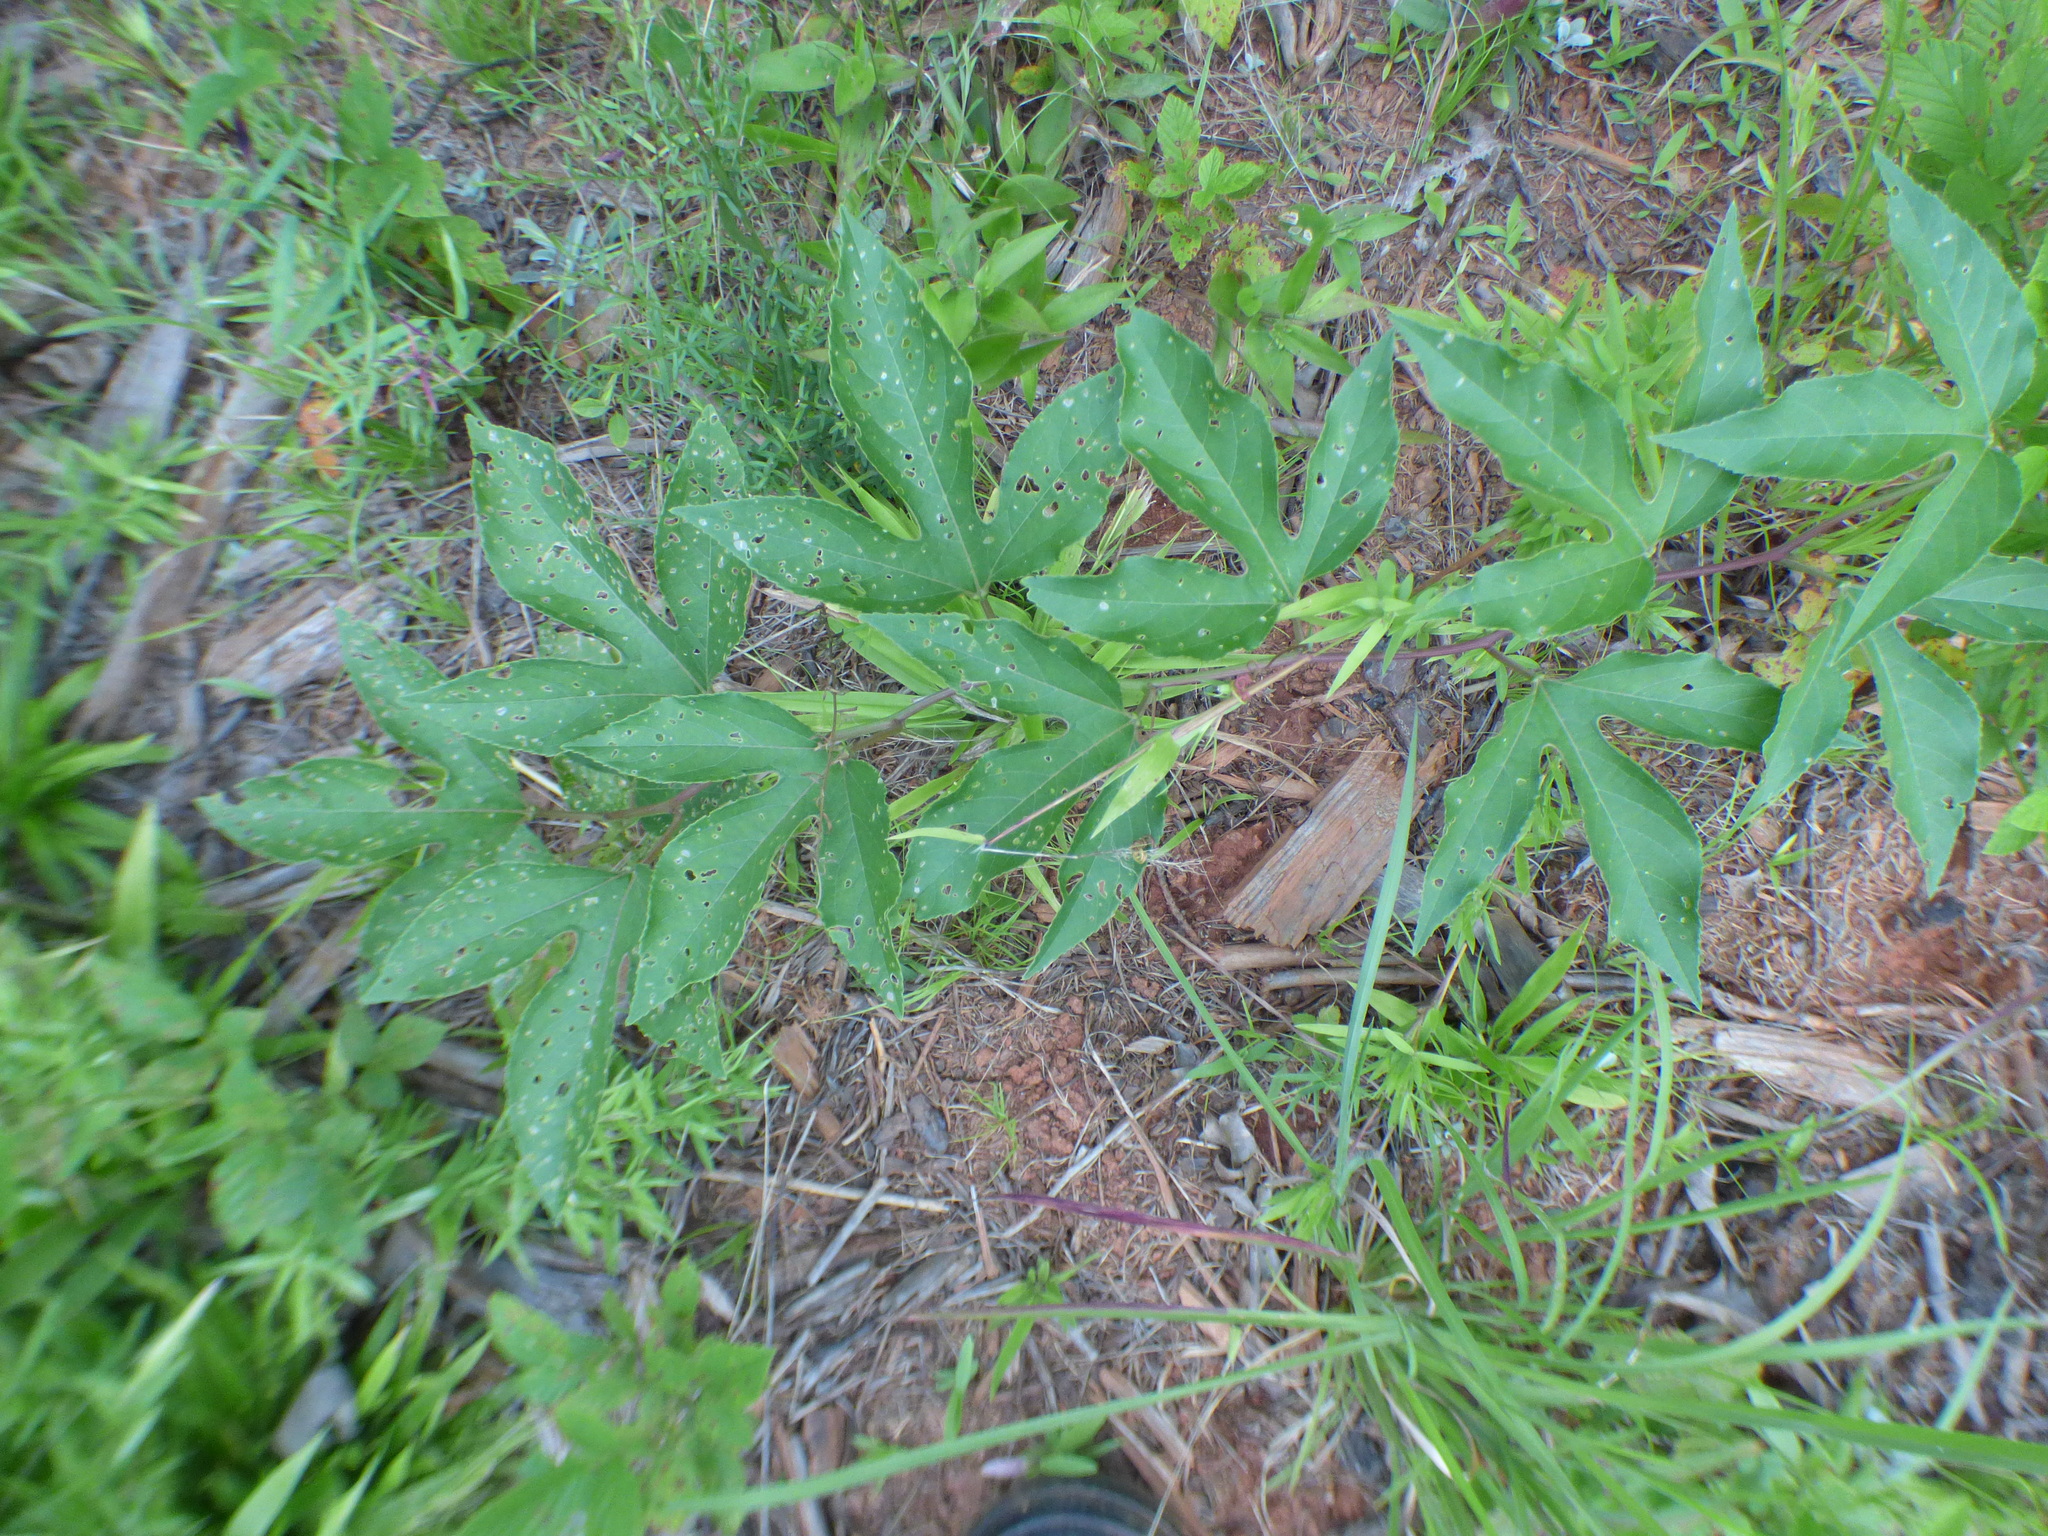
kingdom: Plantae
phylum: Tracheophyta
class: Magnoliopsida
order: Malpighiales
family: Passifloraceae
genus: Passiflora
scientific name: Passiflora incarnata
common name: Apricot-vine
